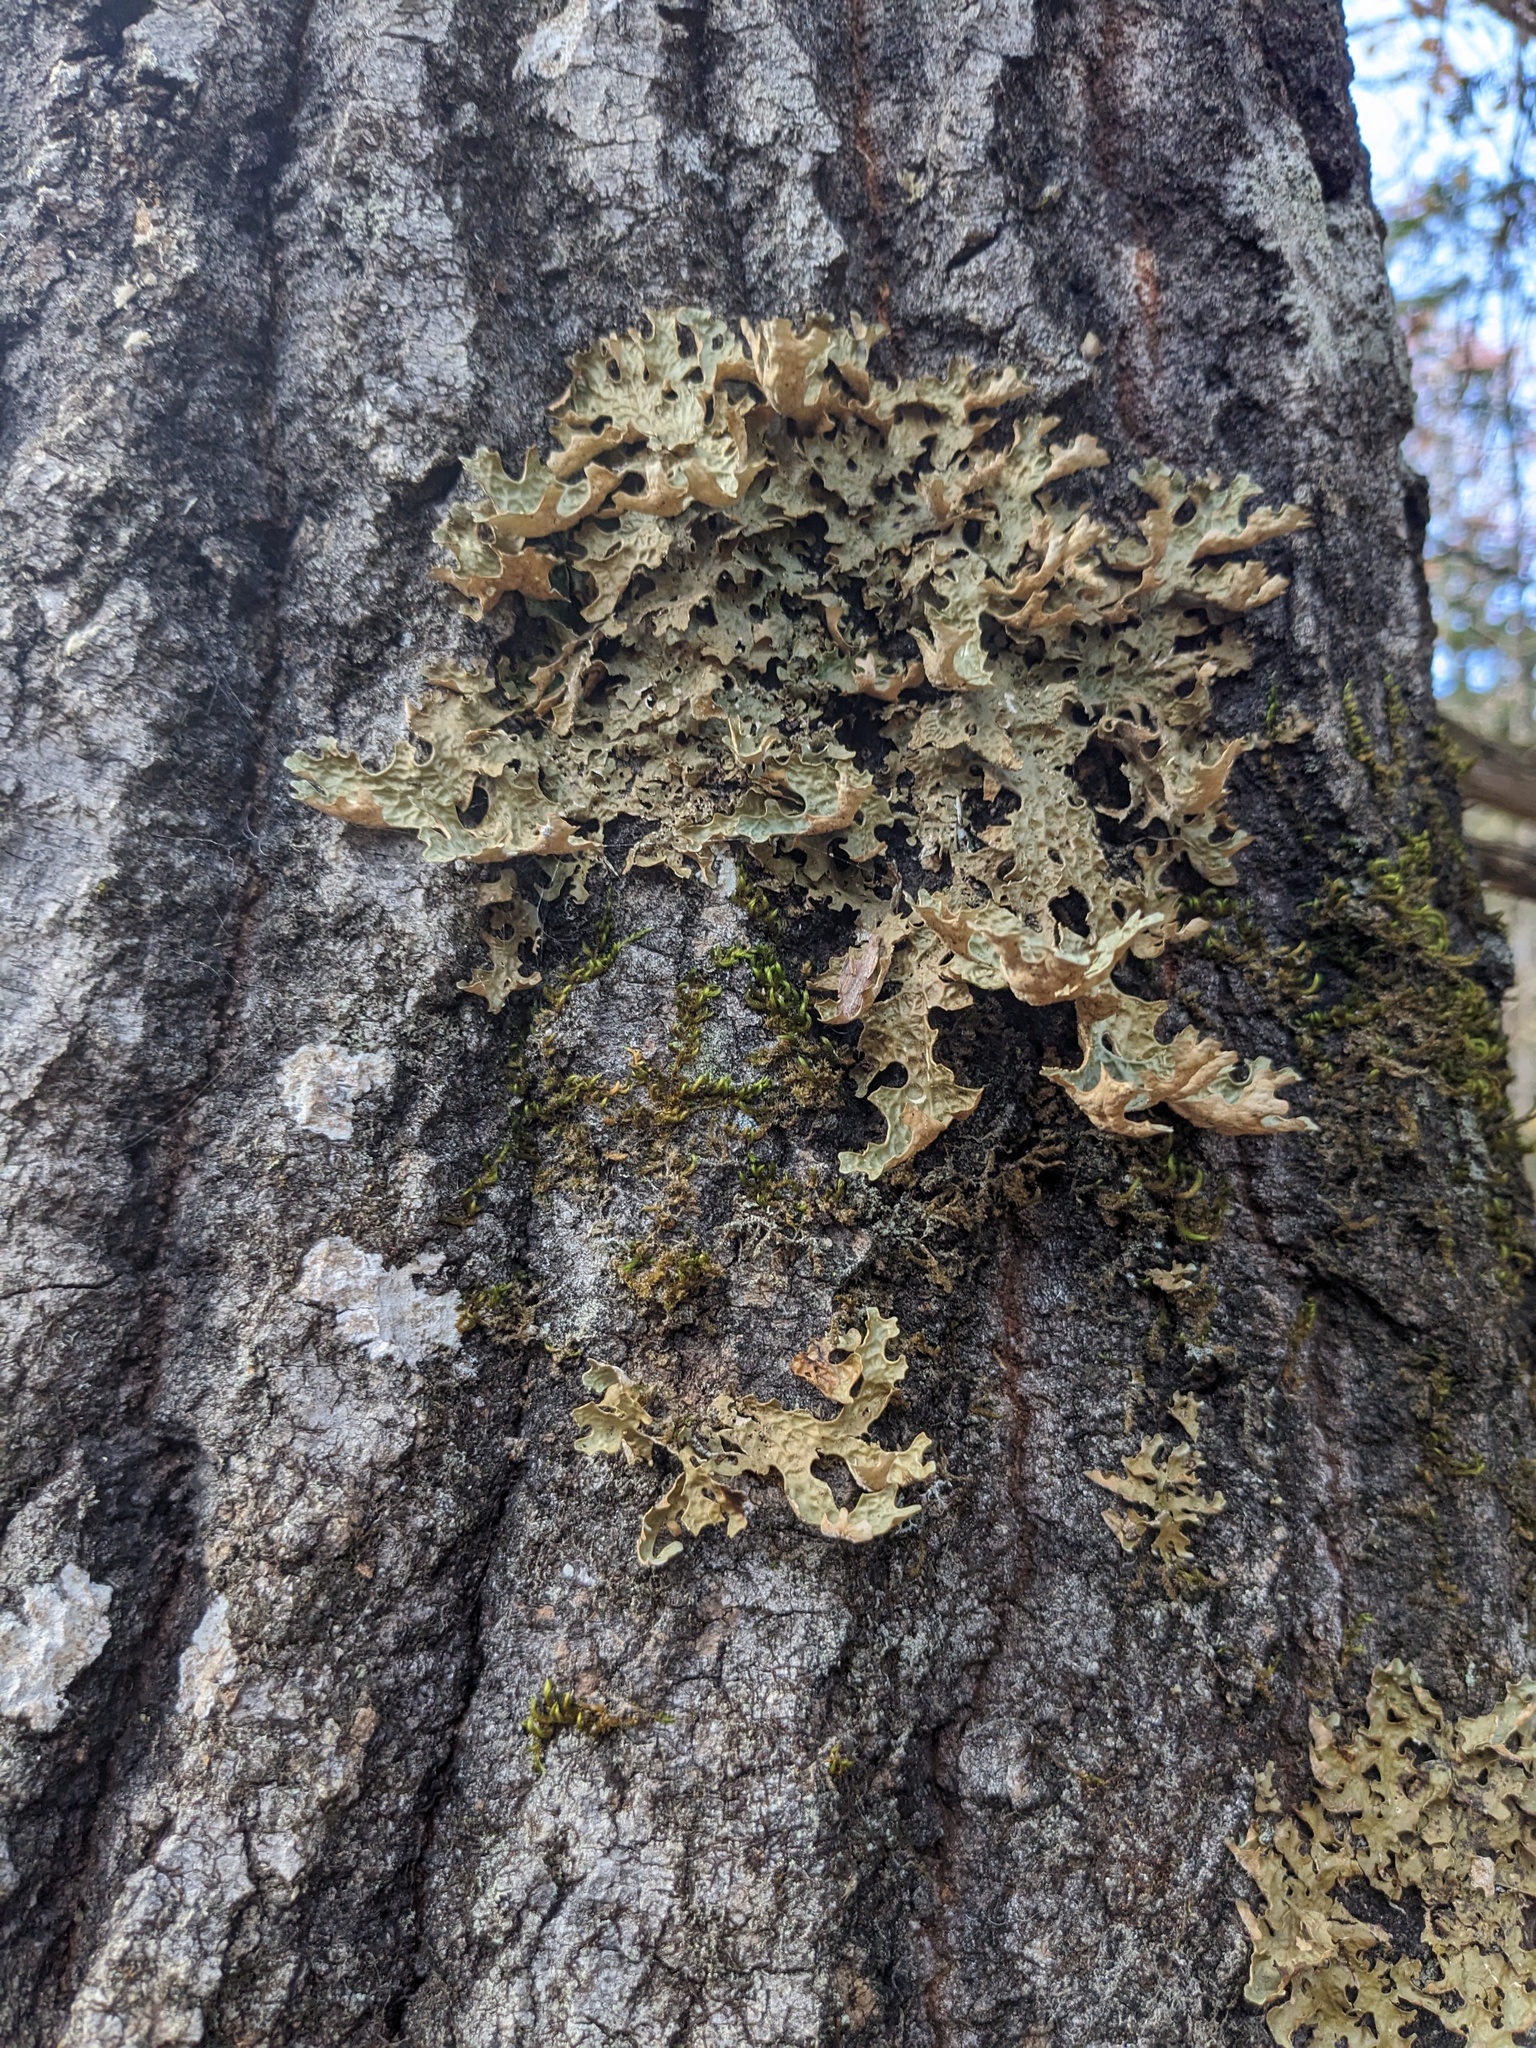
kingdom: Fungi
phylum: Ascomycota
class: Lecanoromycetes
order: Peltigerales
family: Lobariaceae
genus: Lobaria
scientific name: Lobaria pulmonaria
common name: Lungwort
